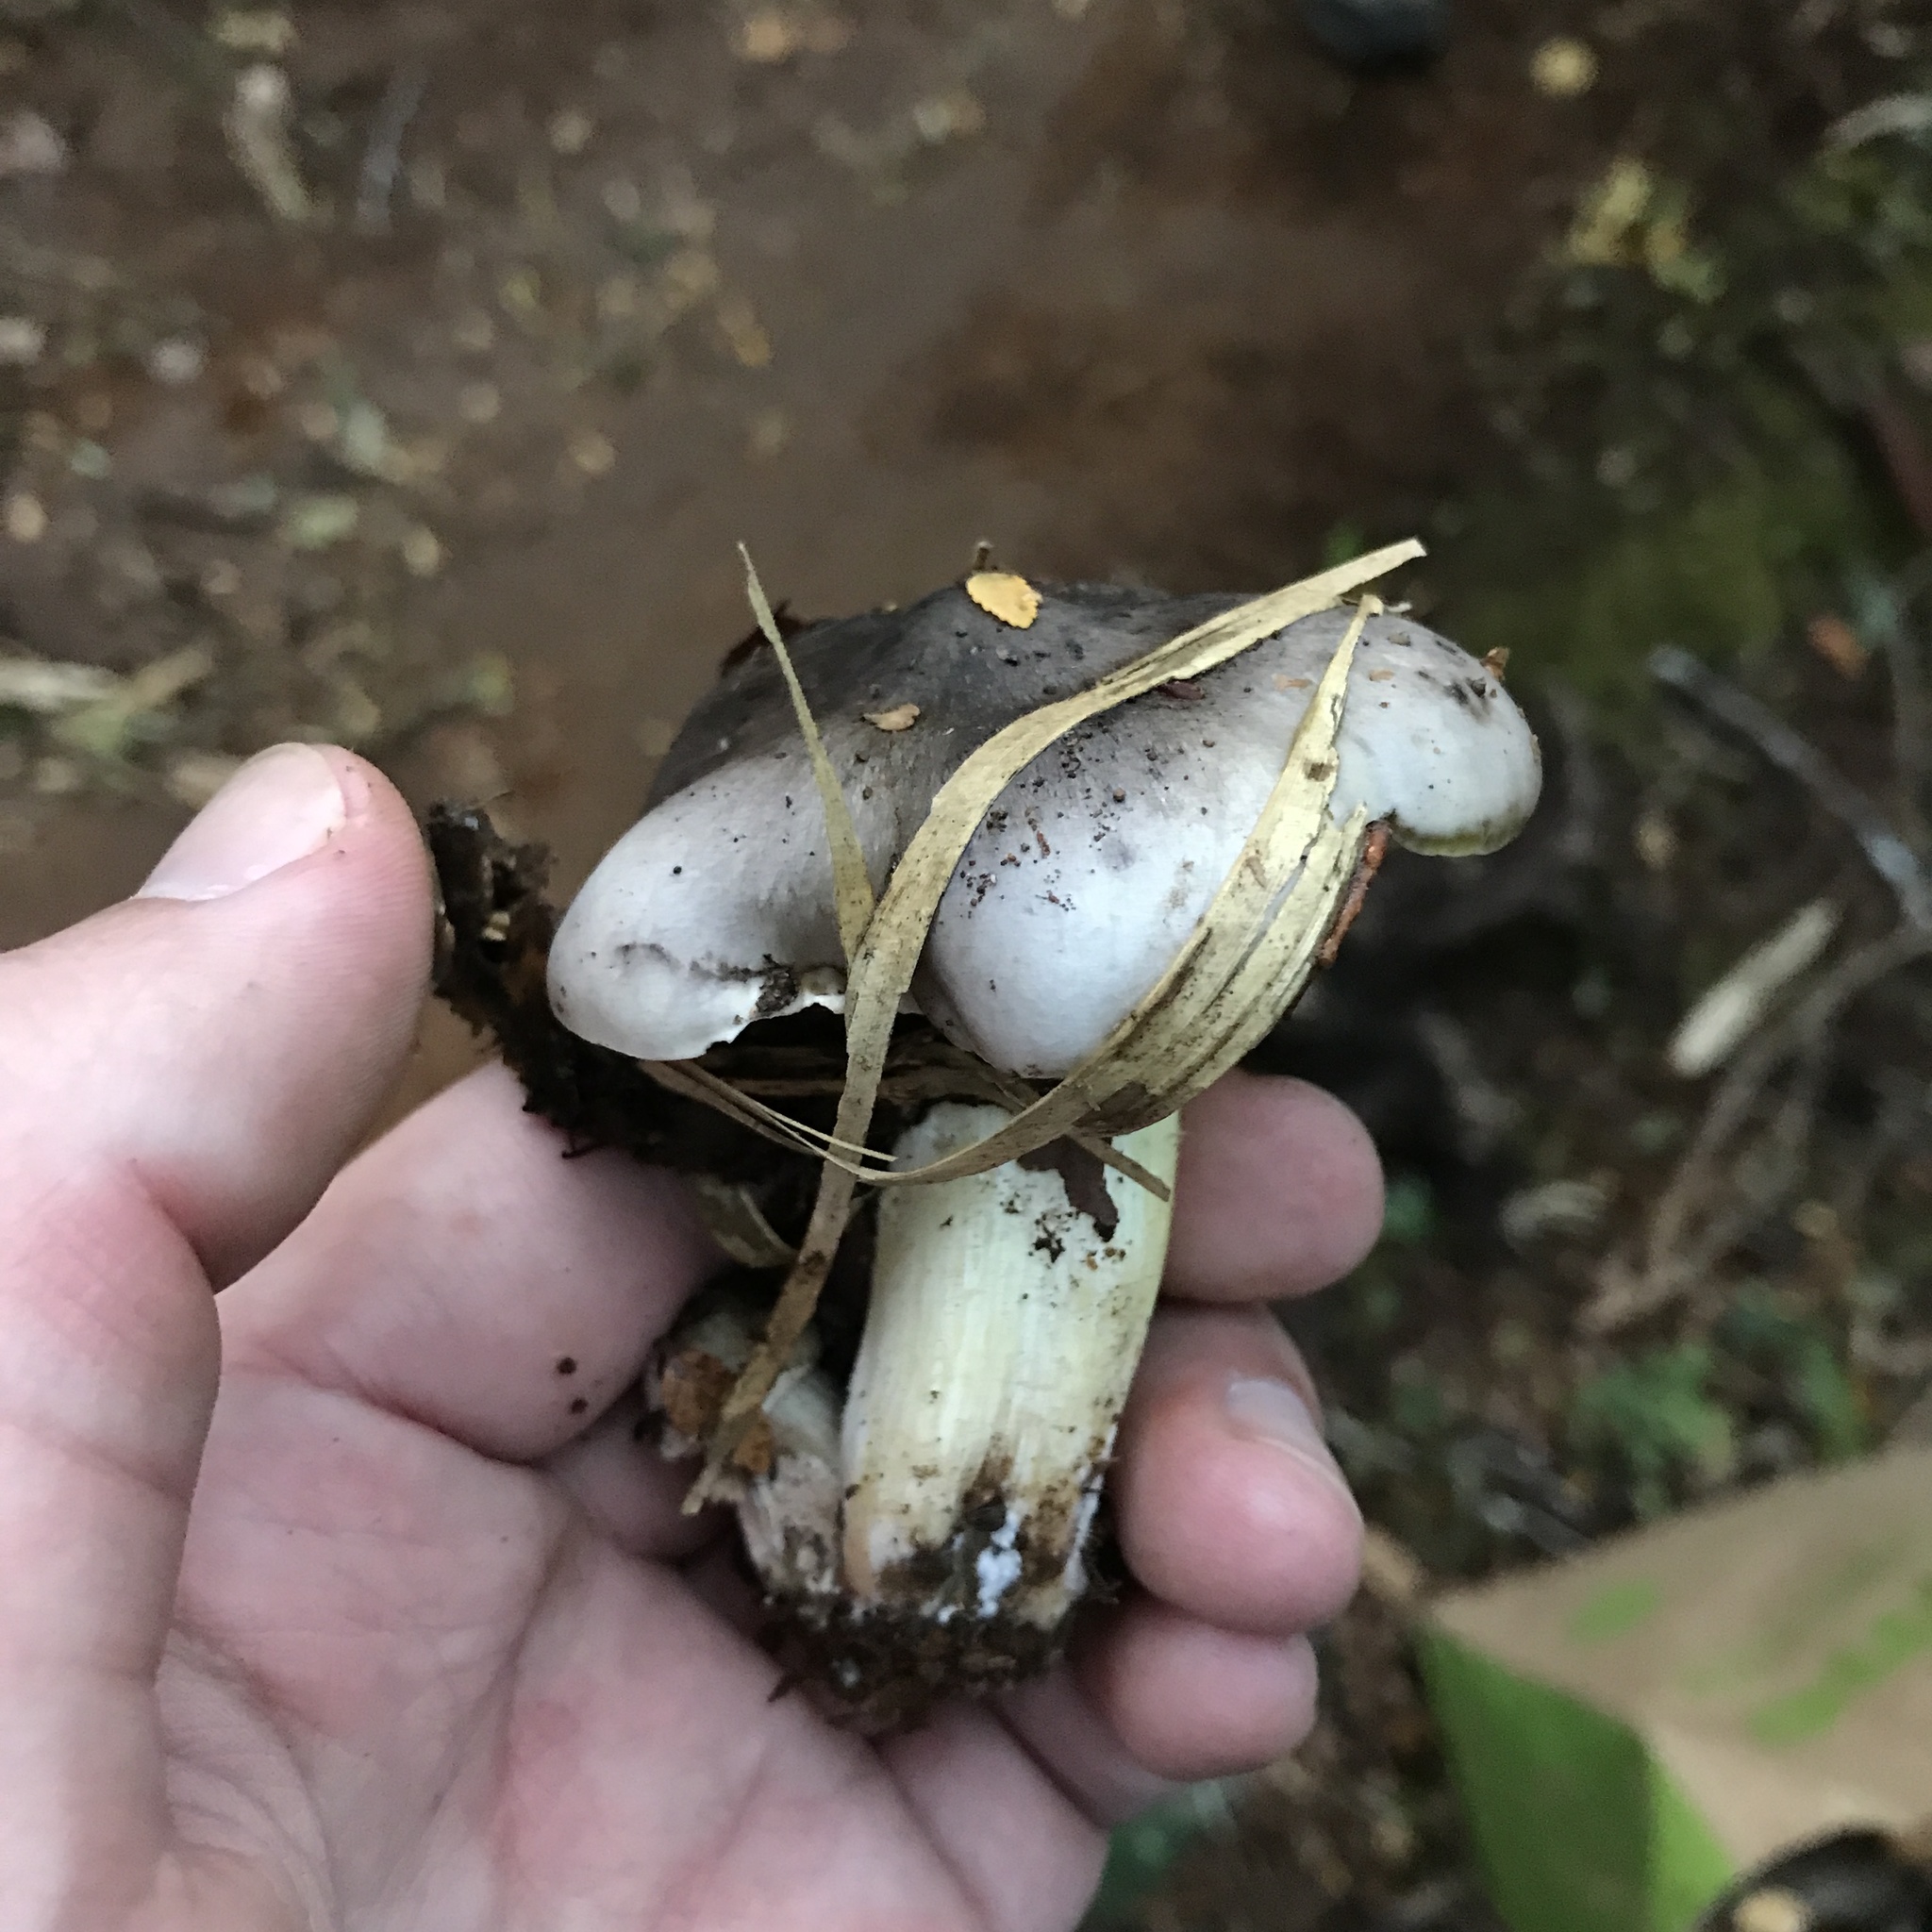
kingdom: Fungi
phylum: Basidiomycota
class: Agaricomycetes
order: Agaricales
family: Tricholomataceae
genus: Porpoloma
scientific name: Porpoloma portentosum
